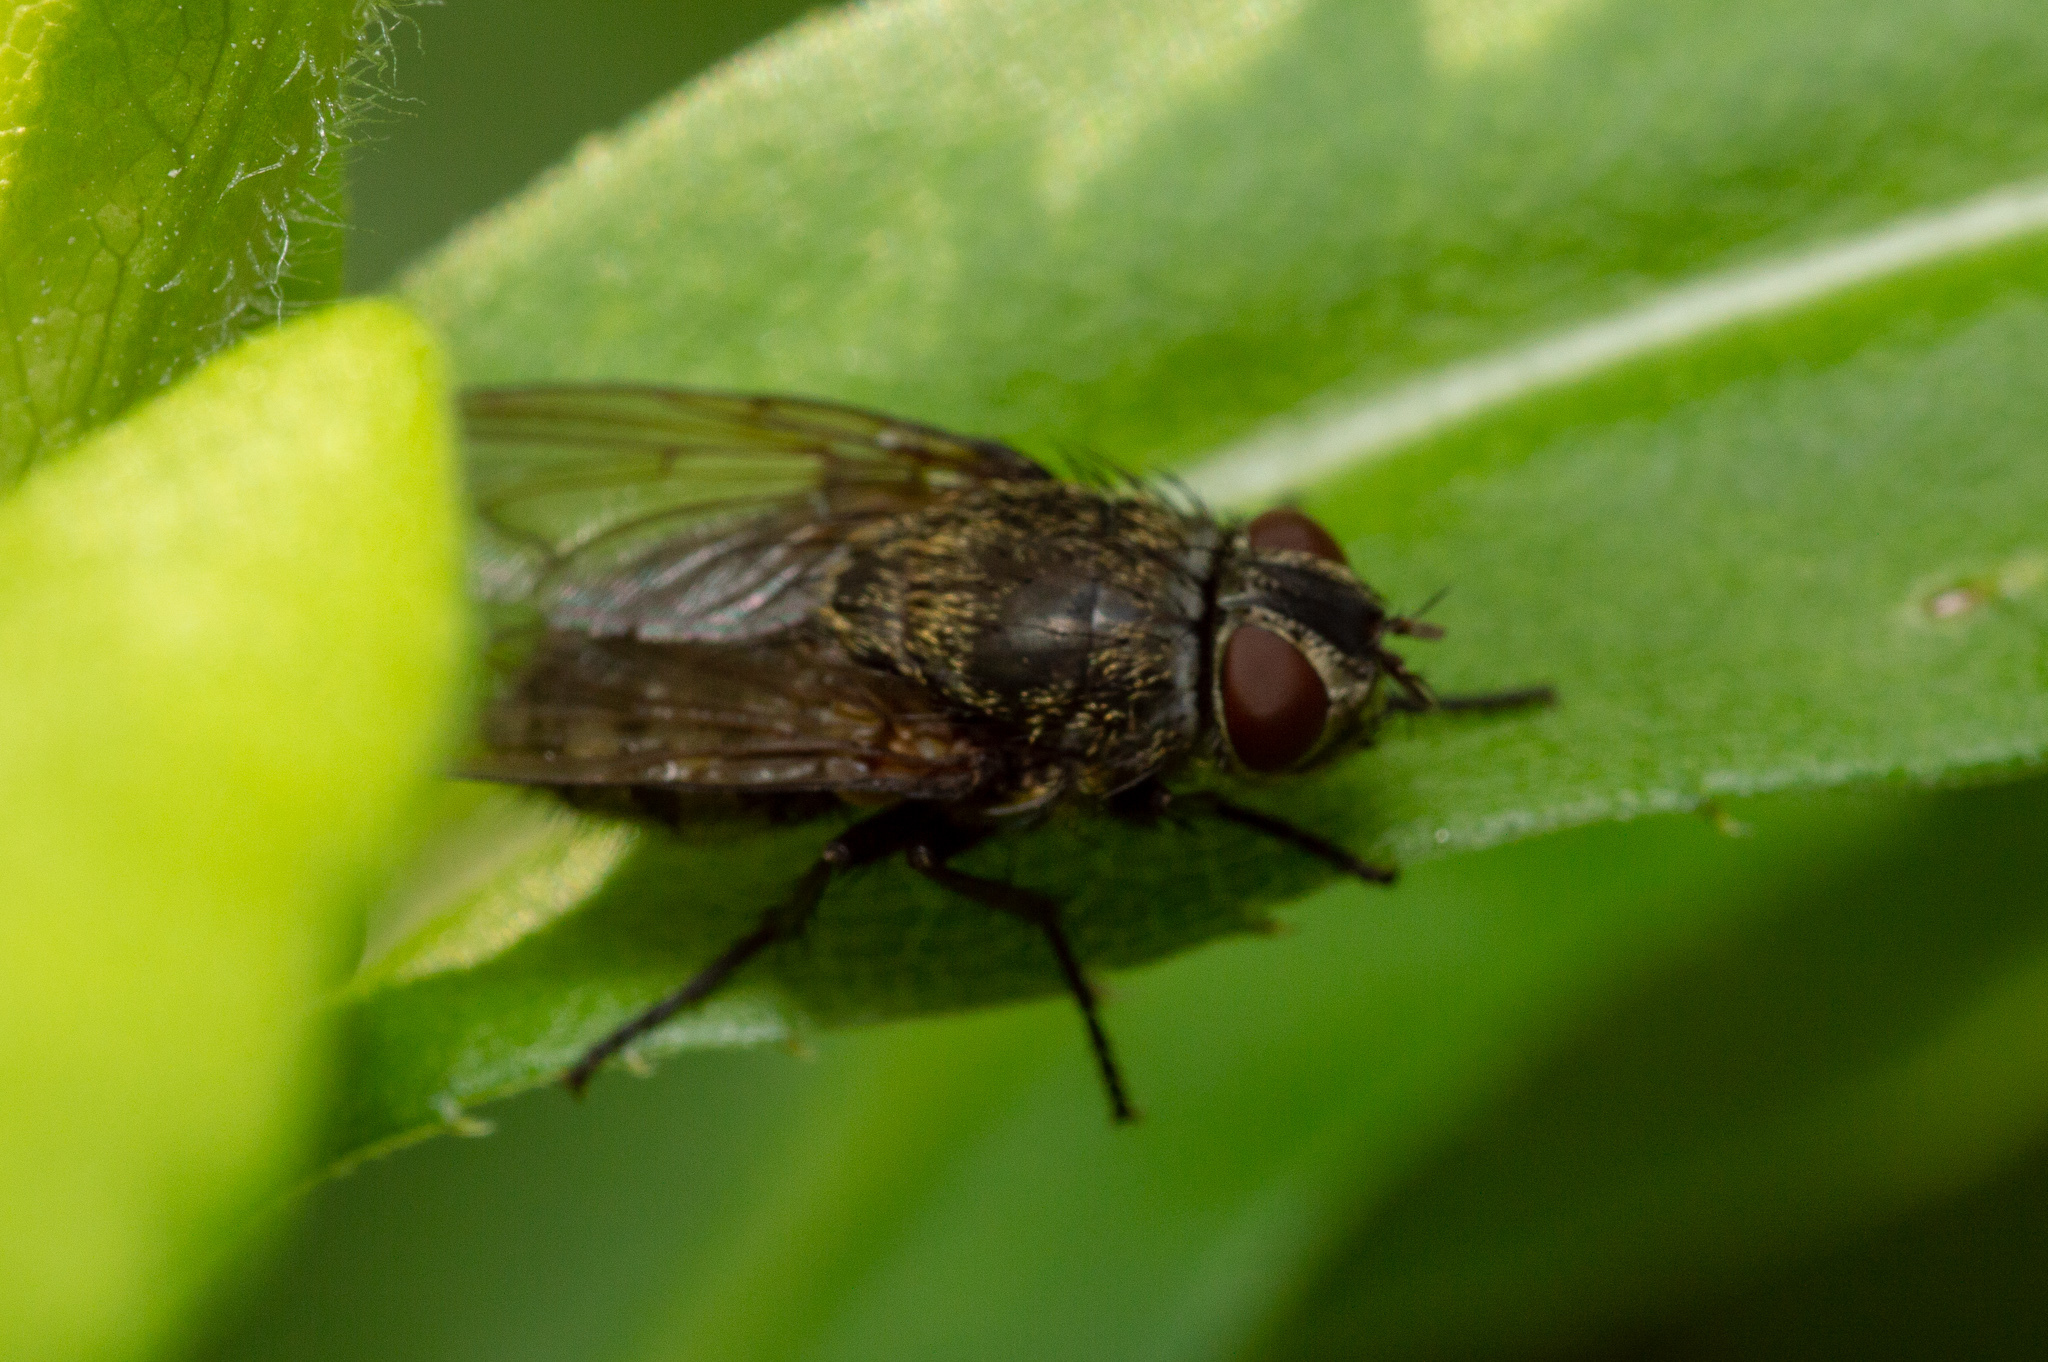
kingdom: Animalia
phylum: Arthropoda
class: Insecta
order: Diptera
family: Polleniidae
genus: Pollenia
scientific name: Pollenia
